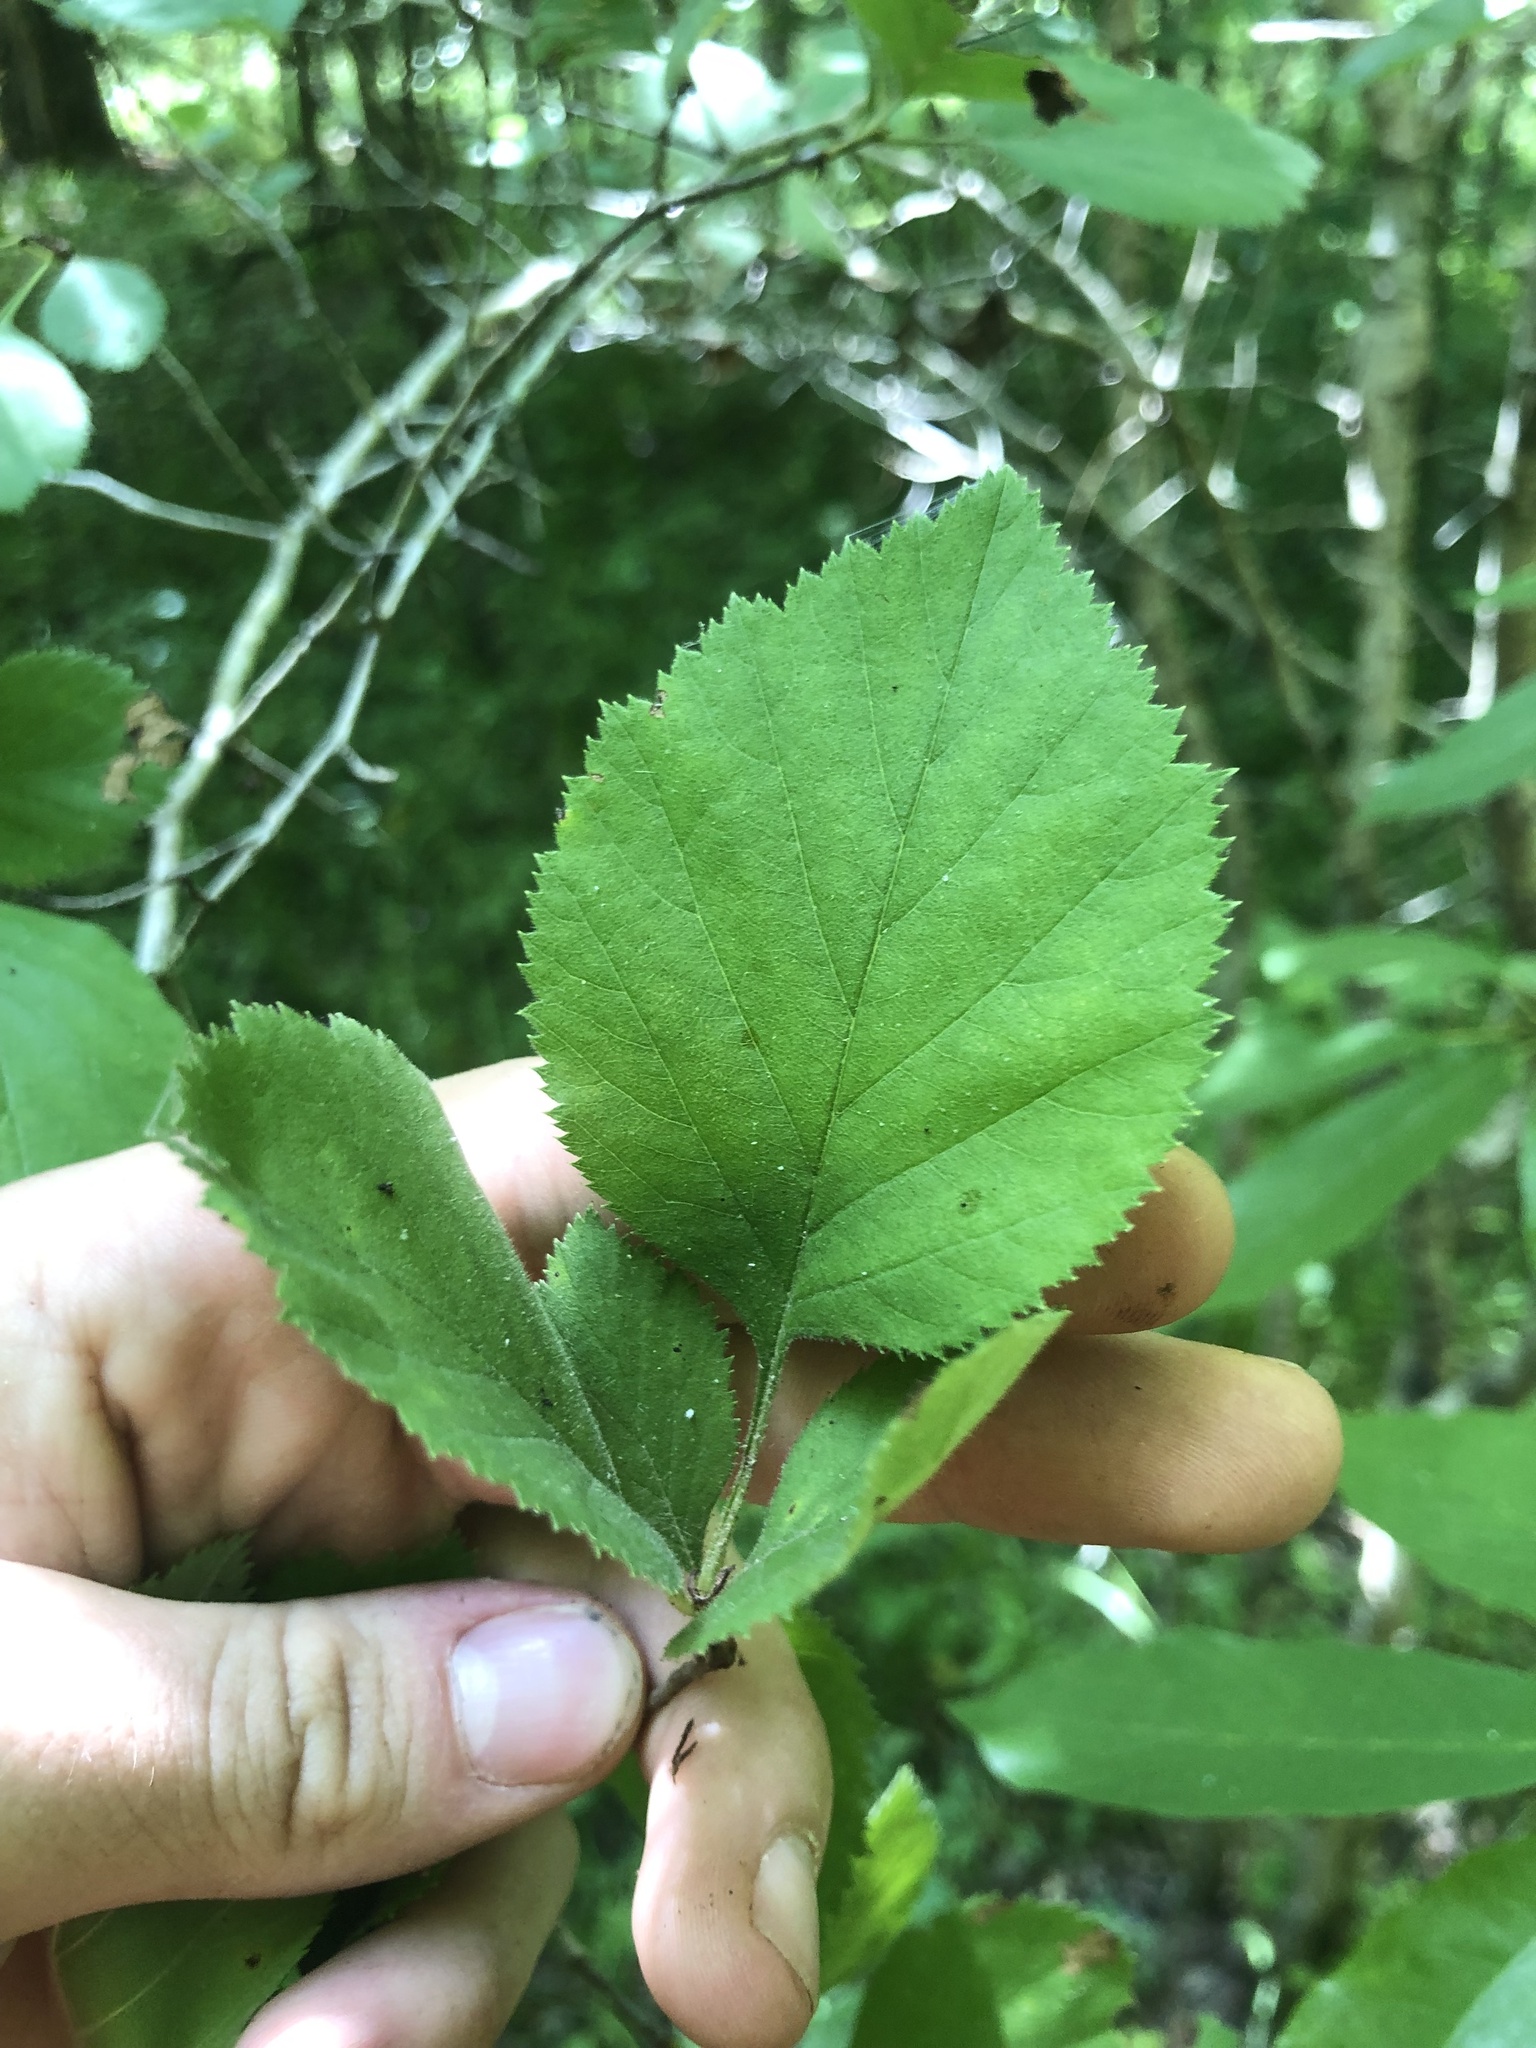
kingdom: Plantae
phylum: Tracheophyta
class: Magnoliopsida
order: Rosales
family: Rosaceae
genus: Crataegus
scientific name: Crataegus triflora
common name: Three-flower hawthorn
